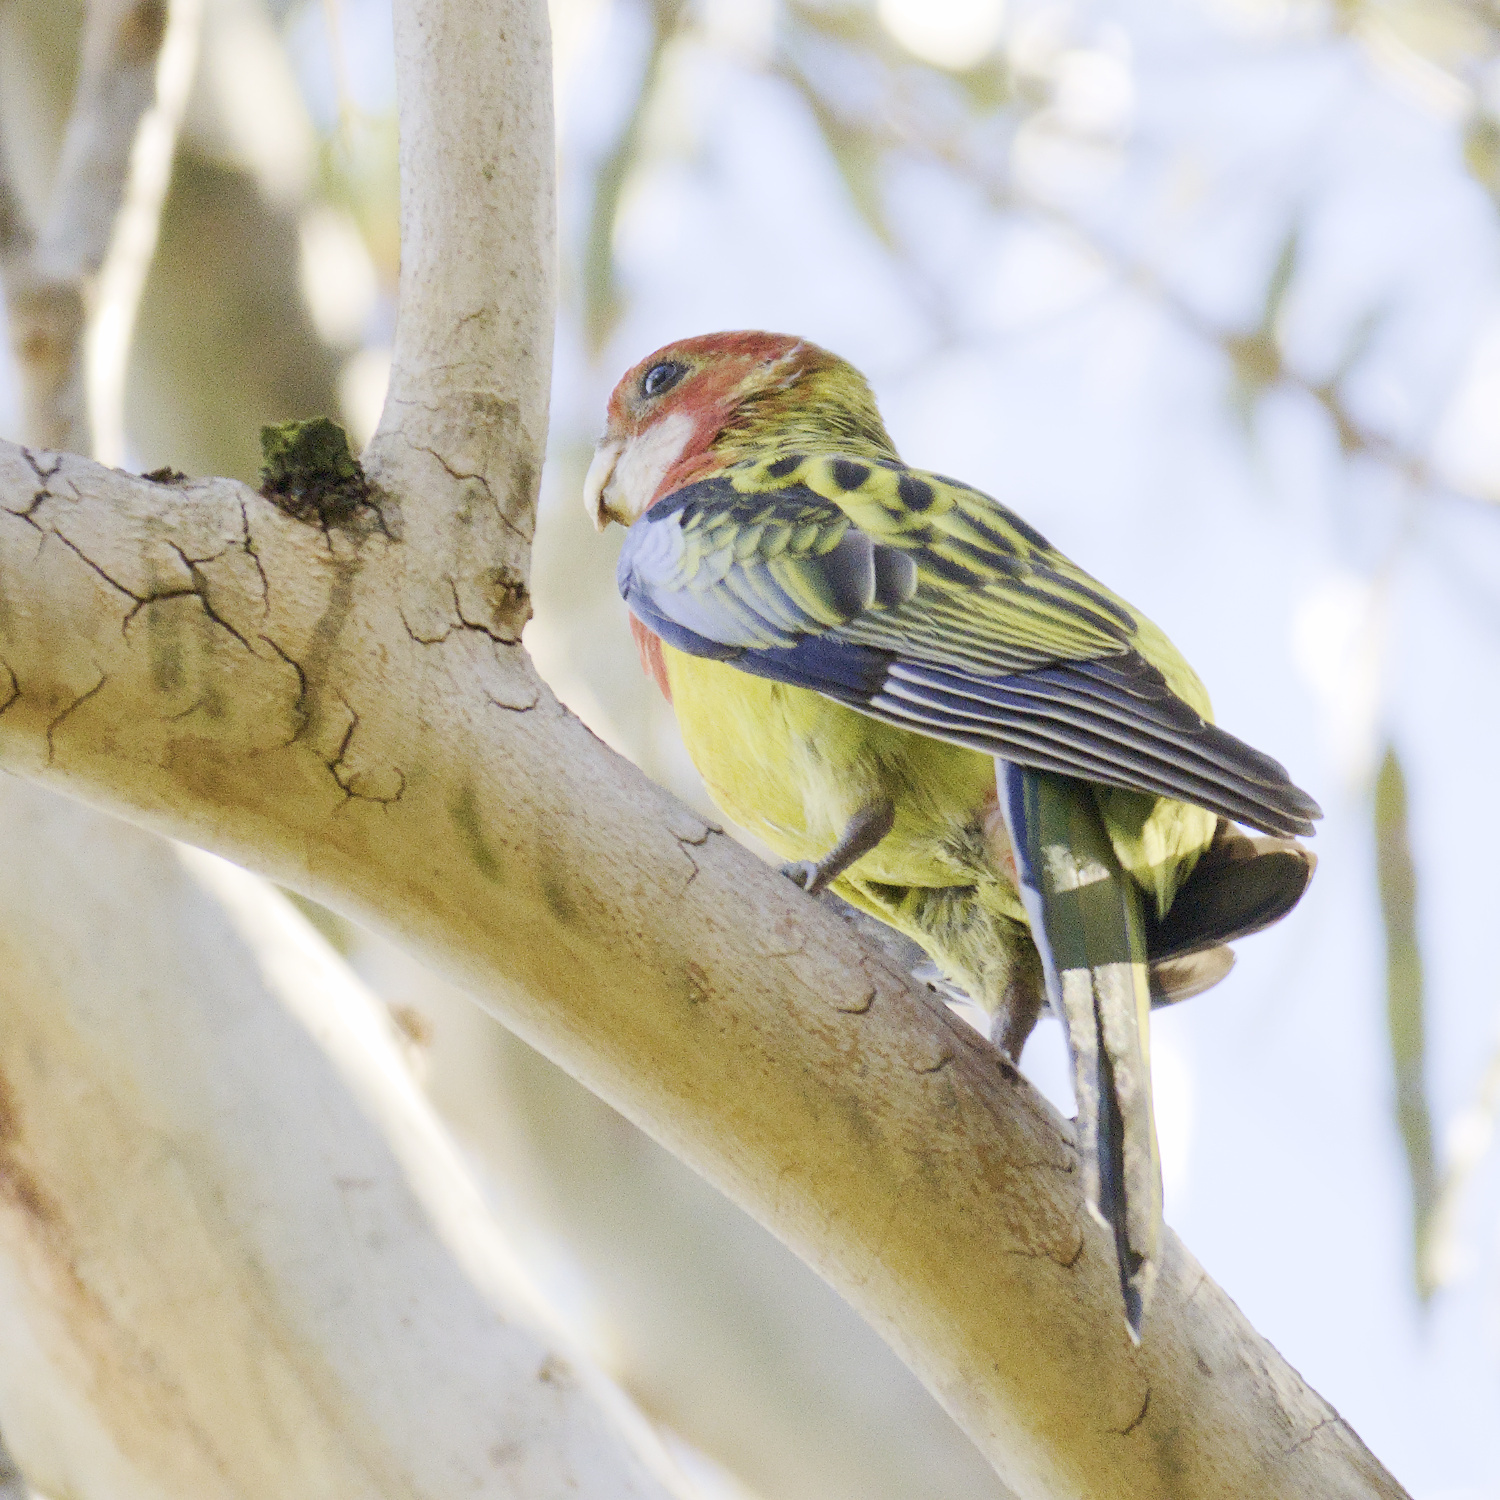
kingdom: Animalia
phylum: Chordata
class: Aves
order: Psittaciformes
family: Psittacidae
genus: Platycercus
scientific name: Platycercus eximius
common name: Eastern rosella
